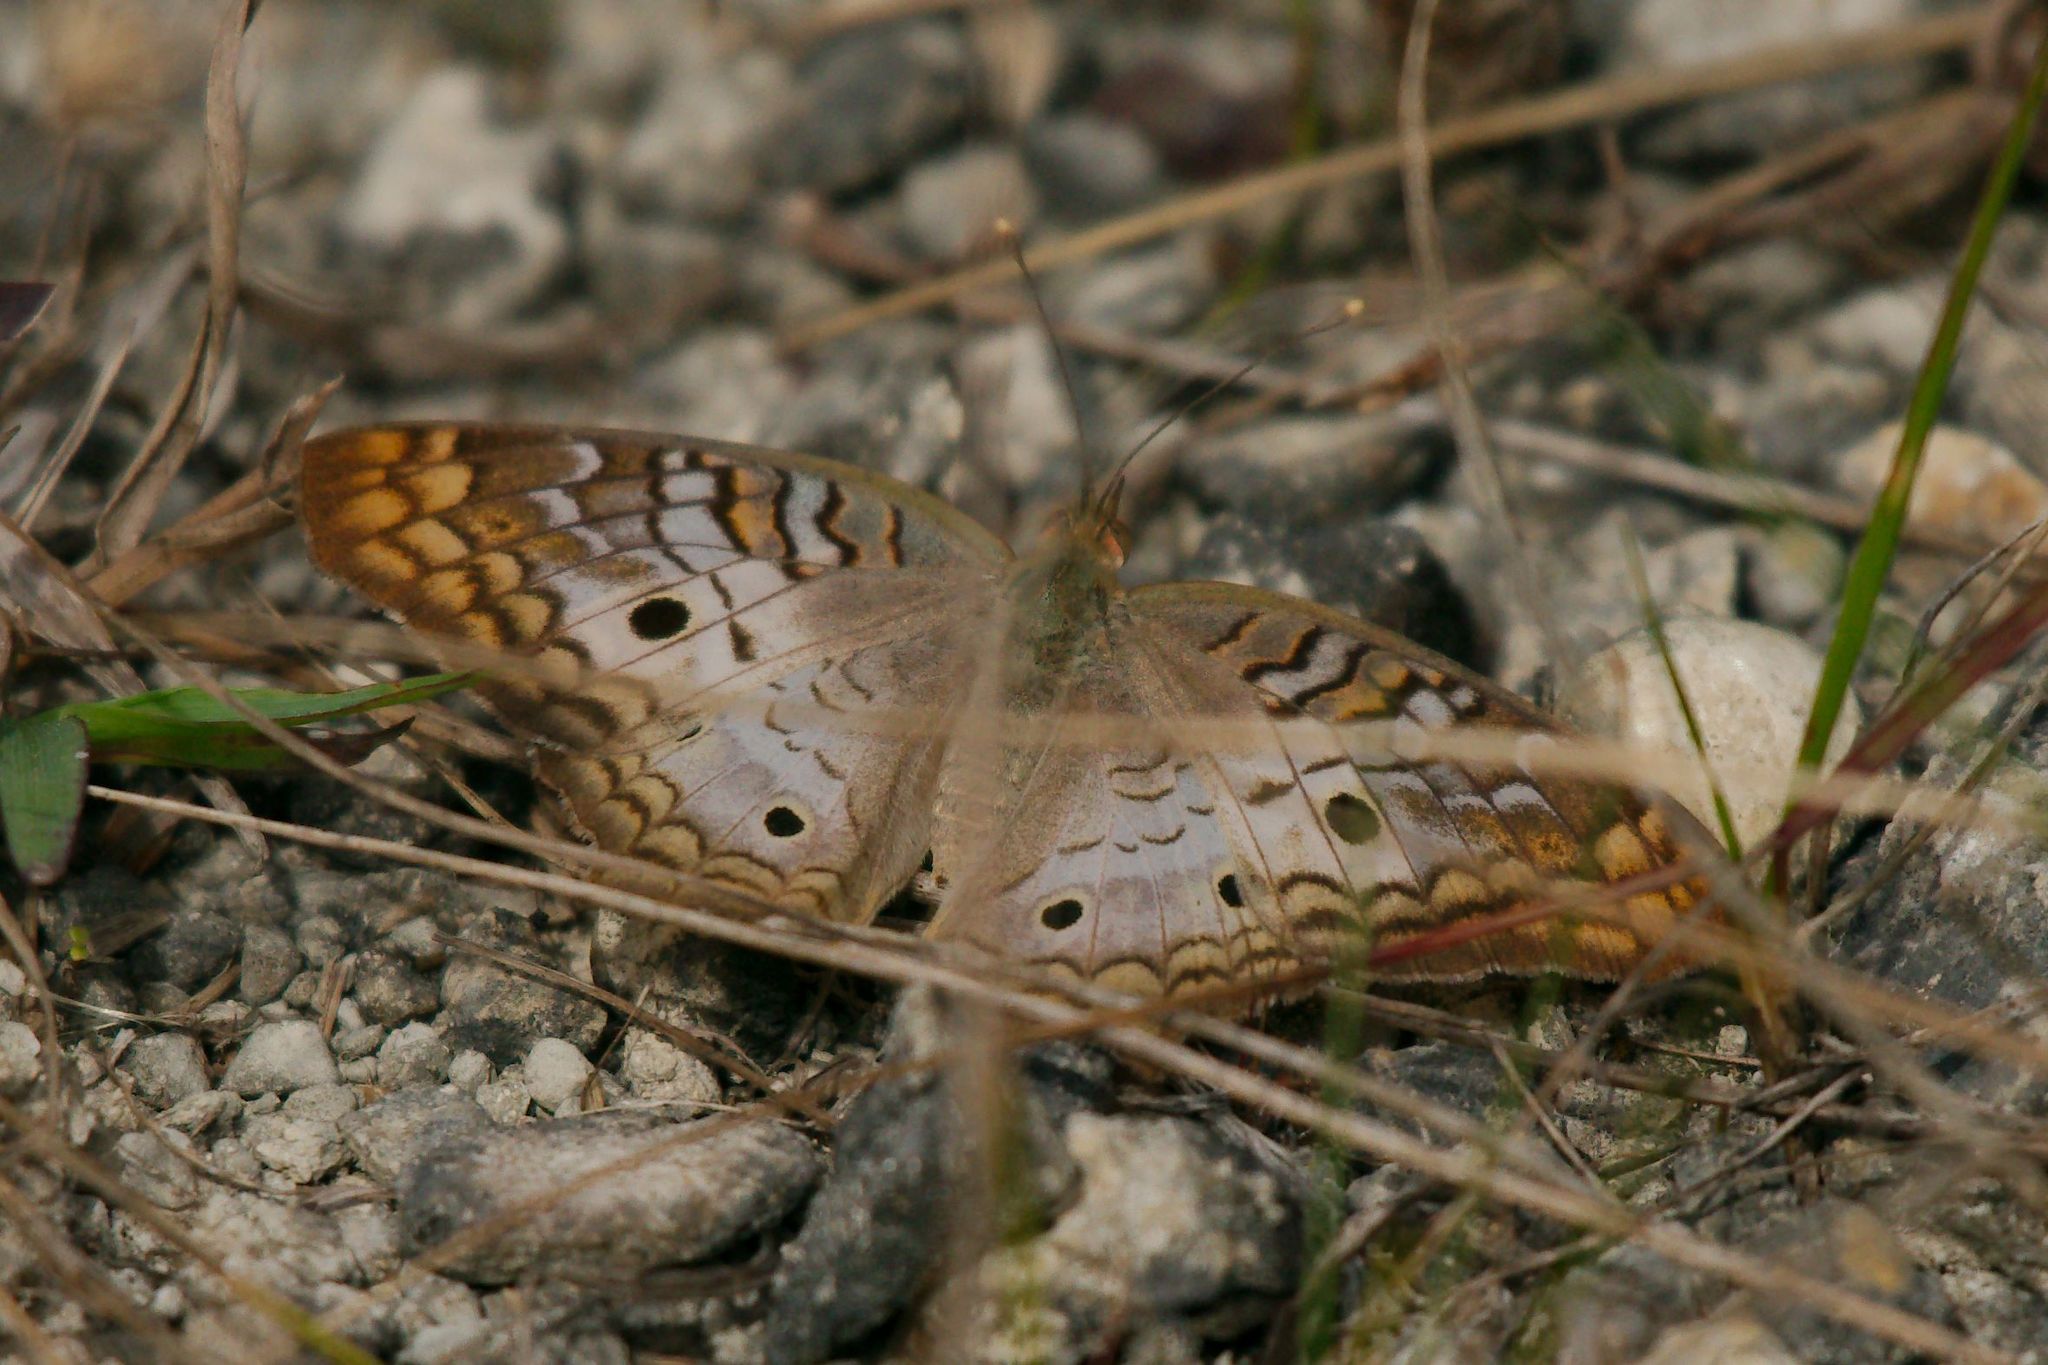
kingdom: Animalia
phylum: Arthropoda
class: Insecta
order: Lepidoptera
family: Nymphalidae
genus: Anartia
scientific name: Anartia jatrophae
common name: White peacock
